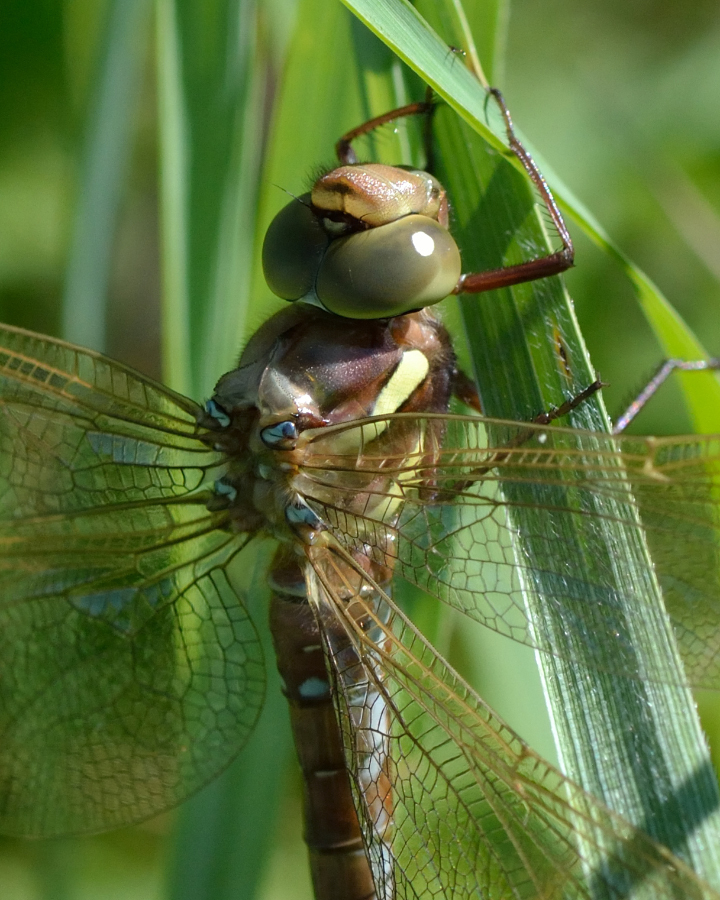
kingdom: Animalia
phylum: Arthropoda
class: Insecta
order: Odonata
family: Aeshnidae
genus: Aeshna
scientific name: Aeshna grandis
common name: Brown hawker
